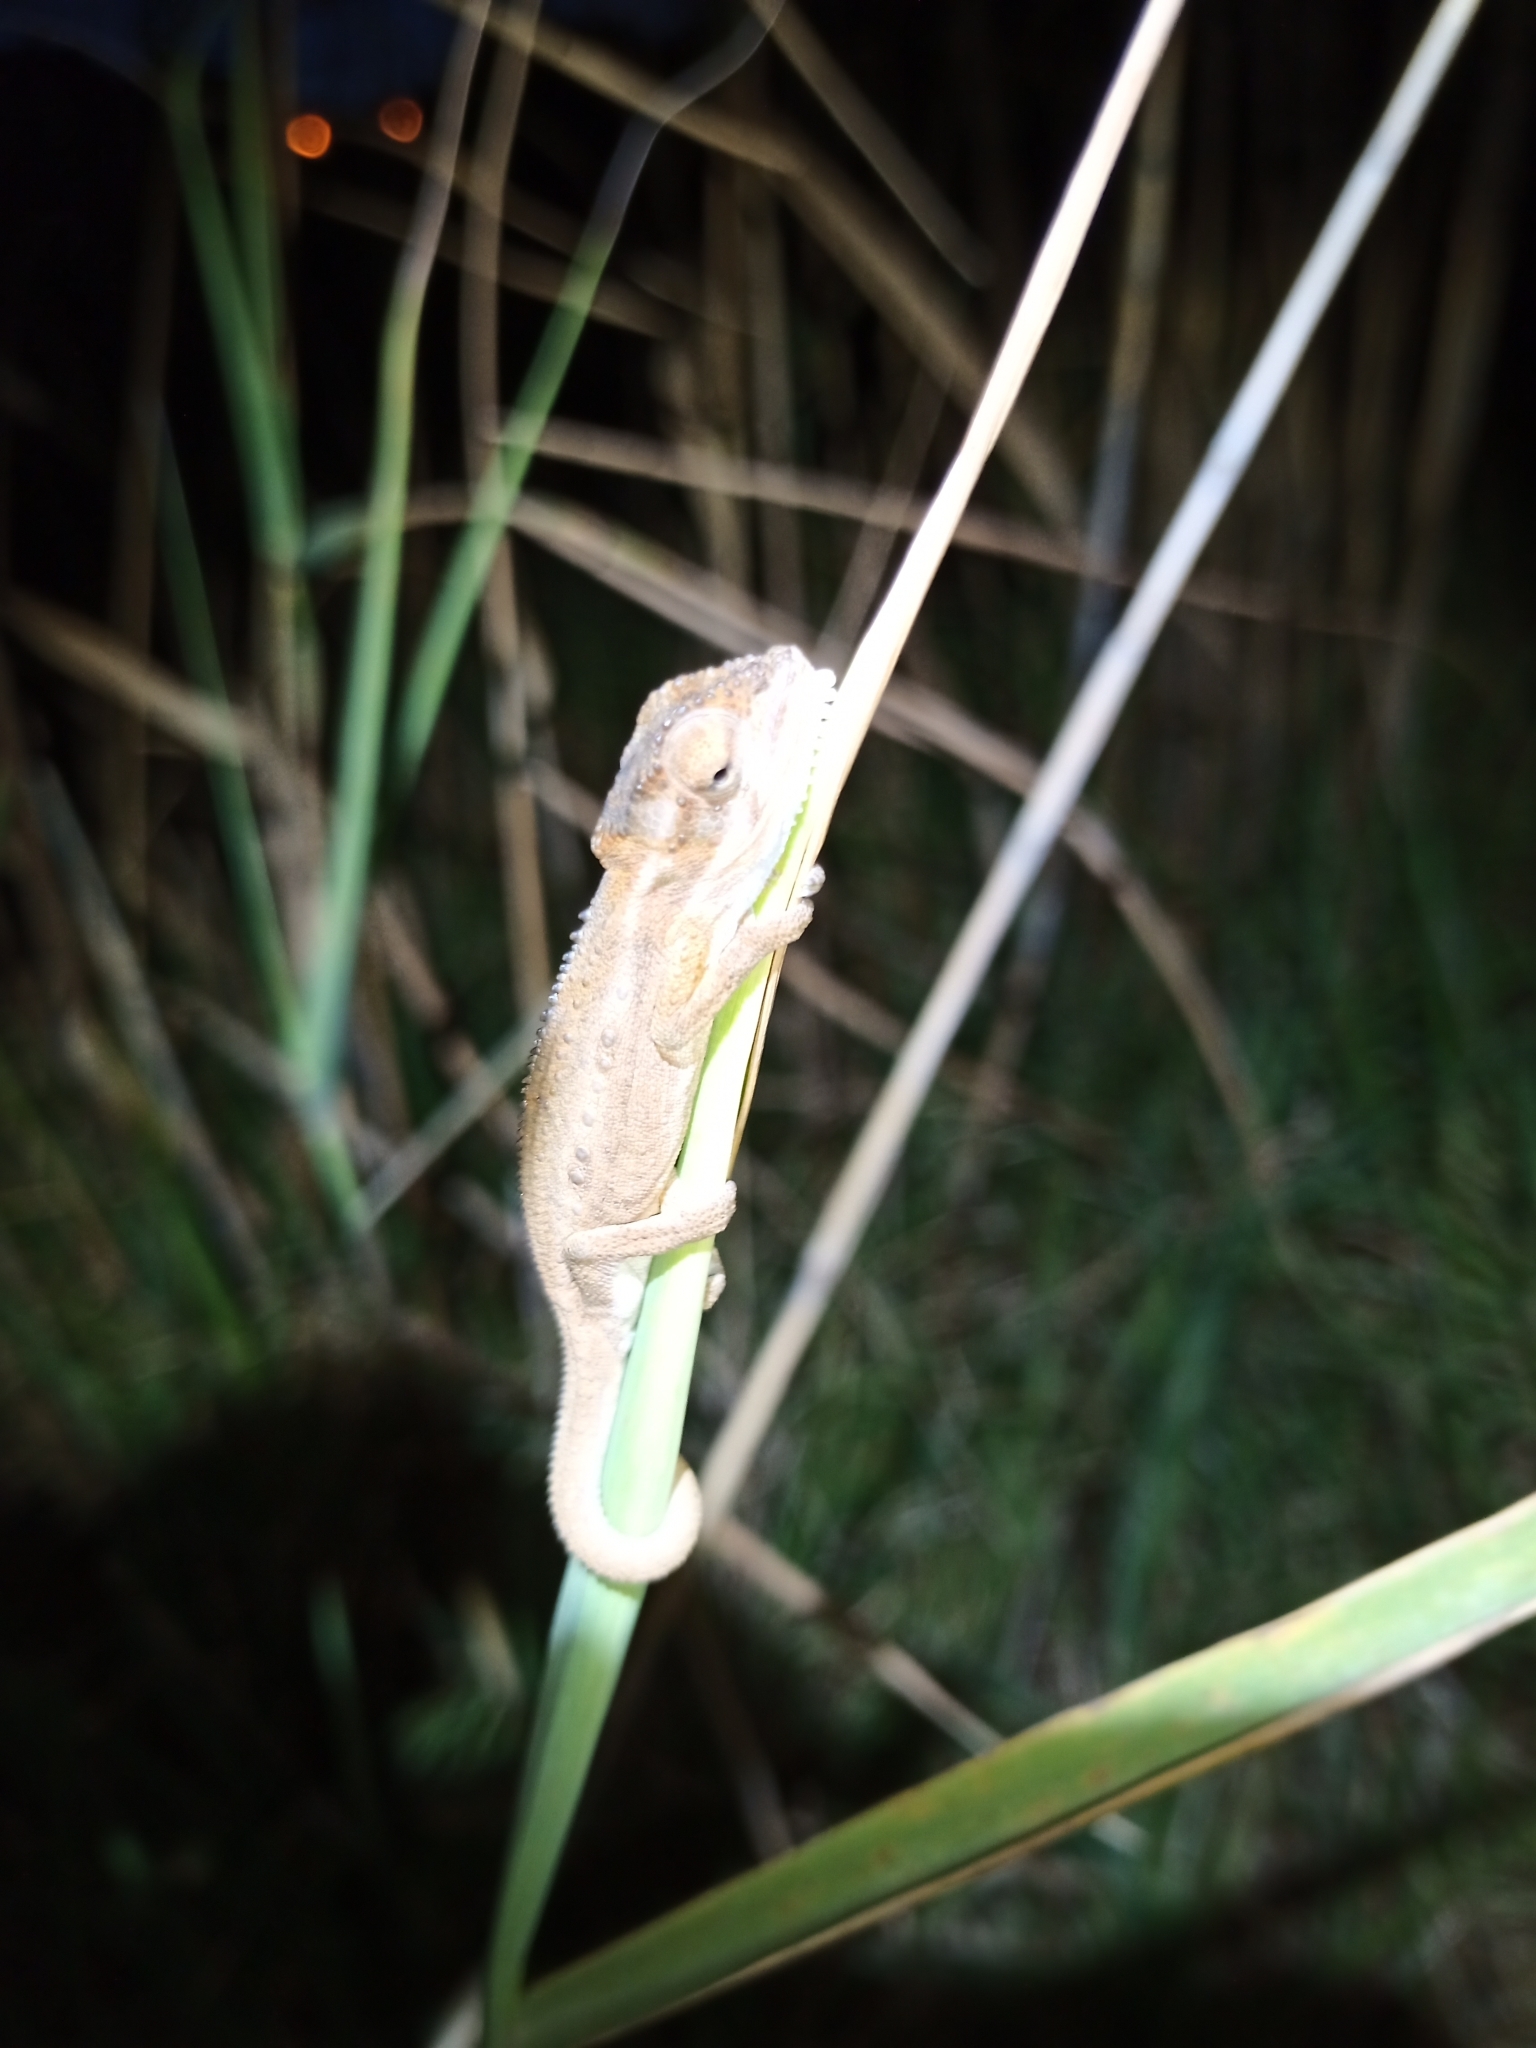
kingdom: Animalia
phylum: Chordata
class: Squamata
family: Chamaeleonidae
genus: Bradypodion
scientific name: Bradypodion pumilum
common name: Cape dwarf chameleon
